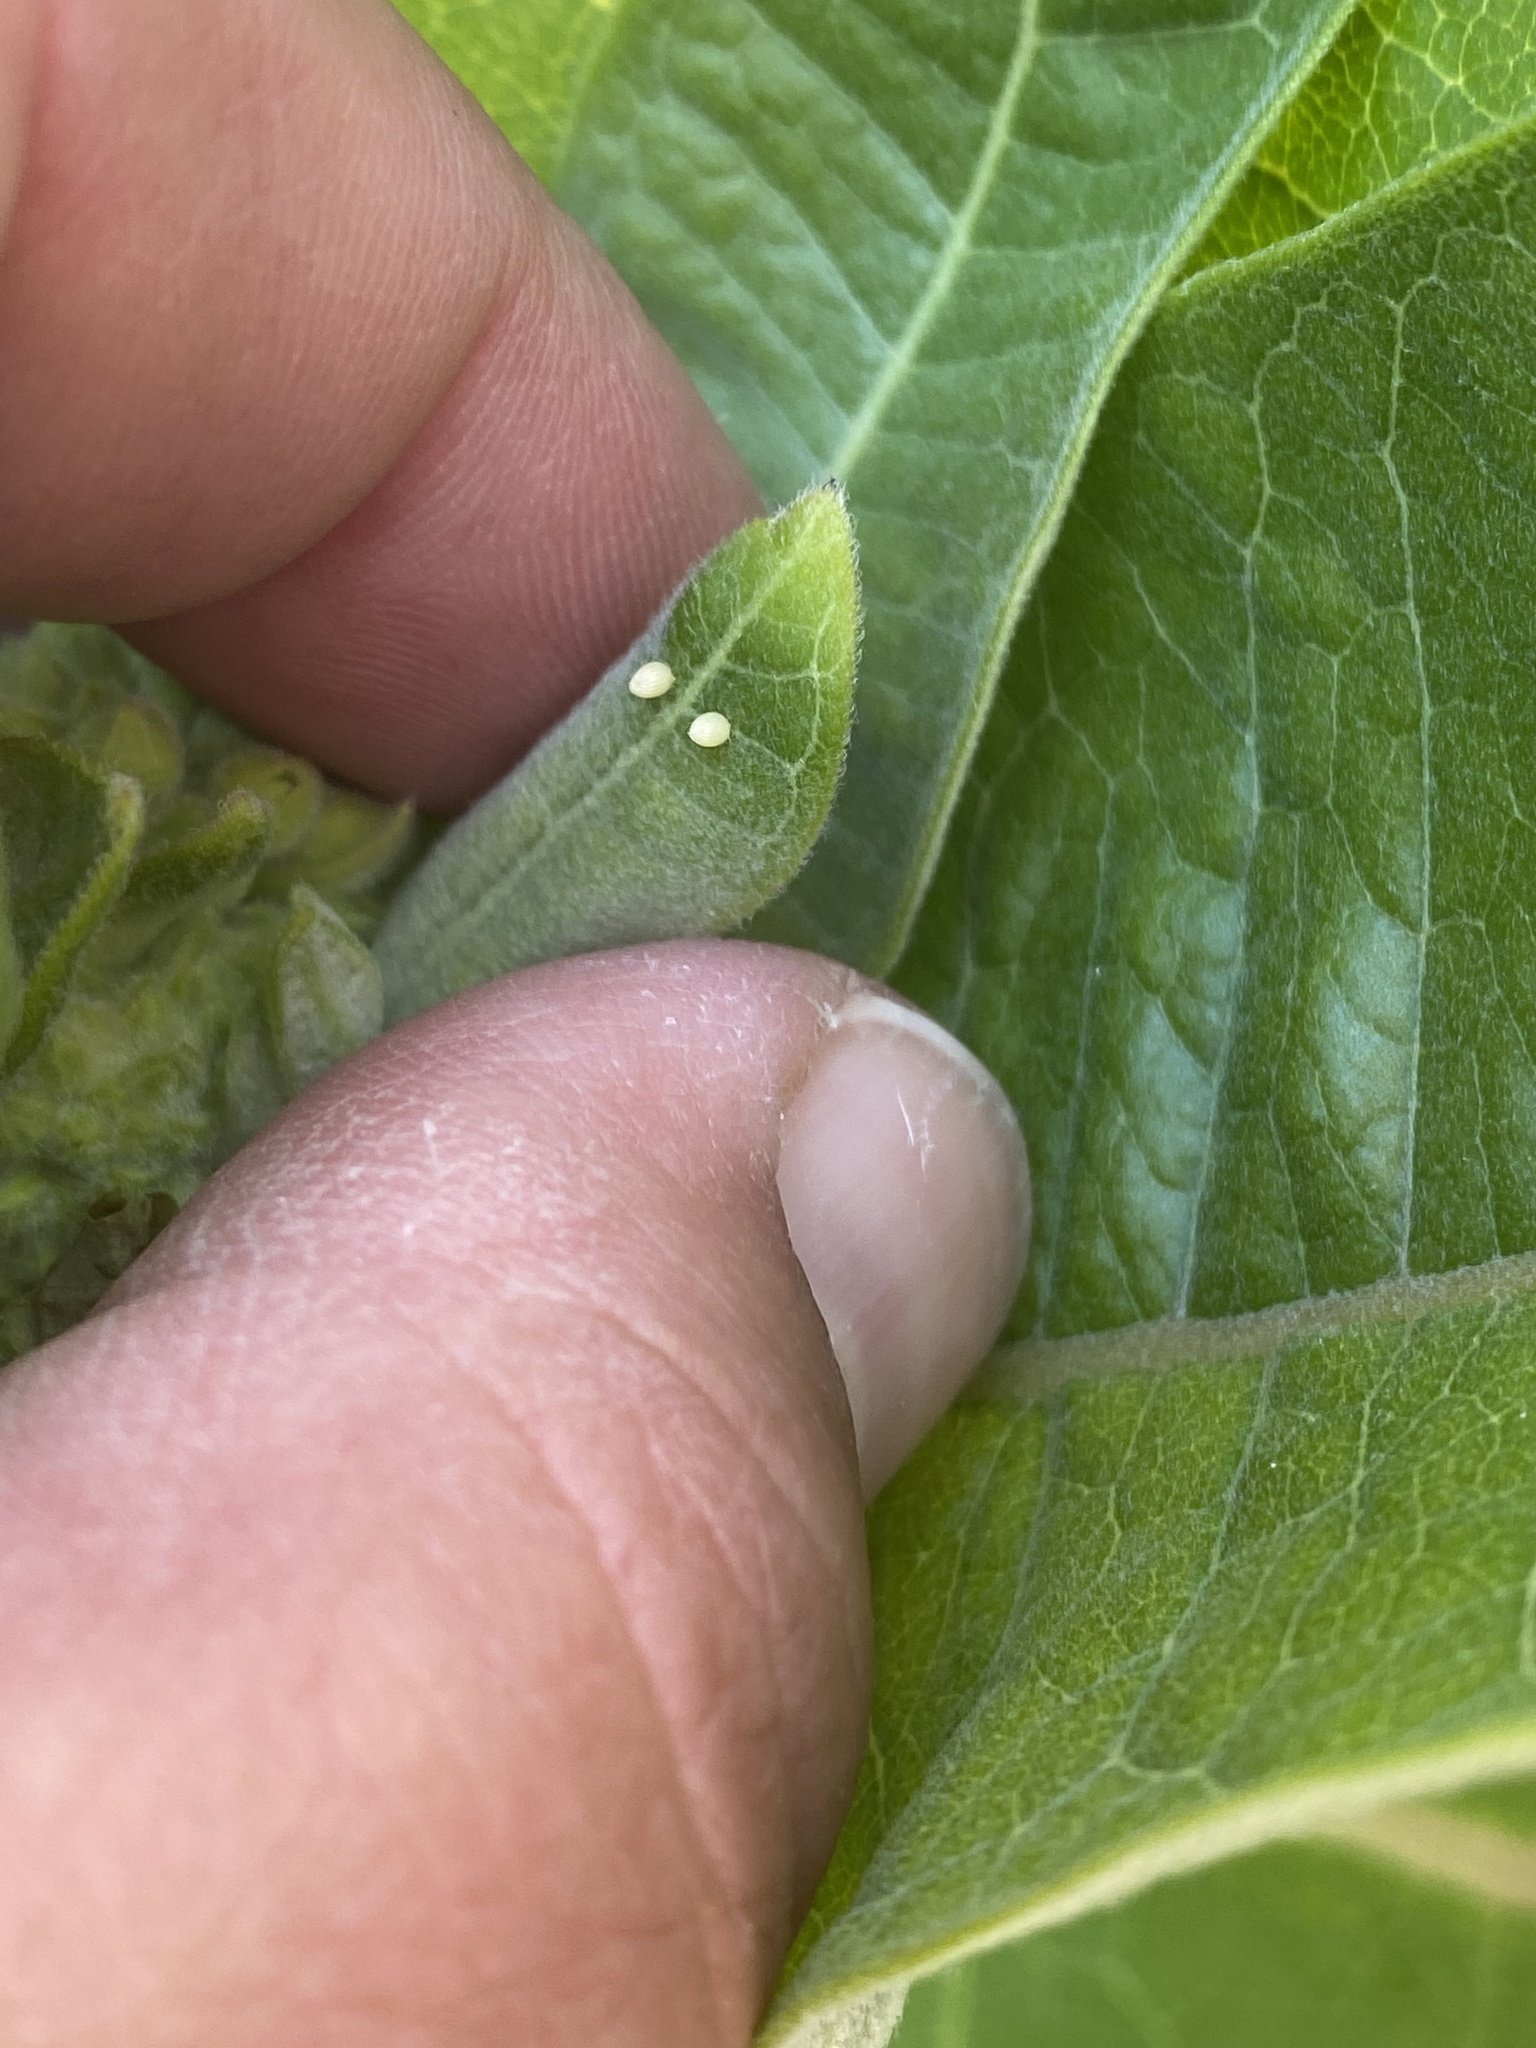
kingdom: Animalia
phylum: Arthropoda
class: Insecta
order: Lepidoptera
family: Nymphalidae
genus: Danaus
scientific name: Danaus plexippus
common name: Monarch
